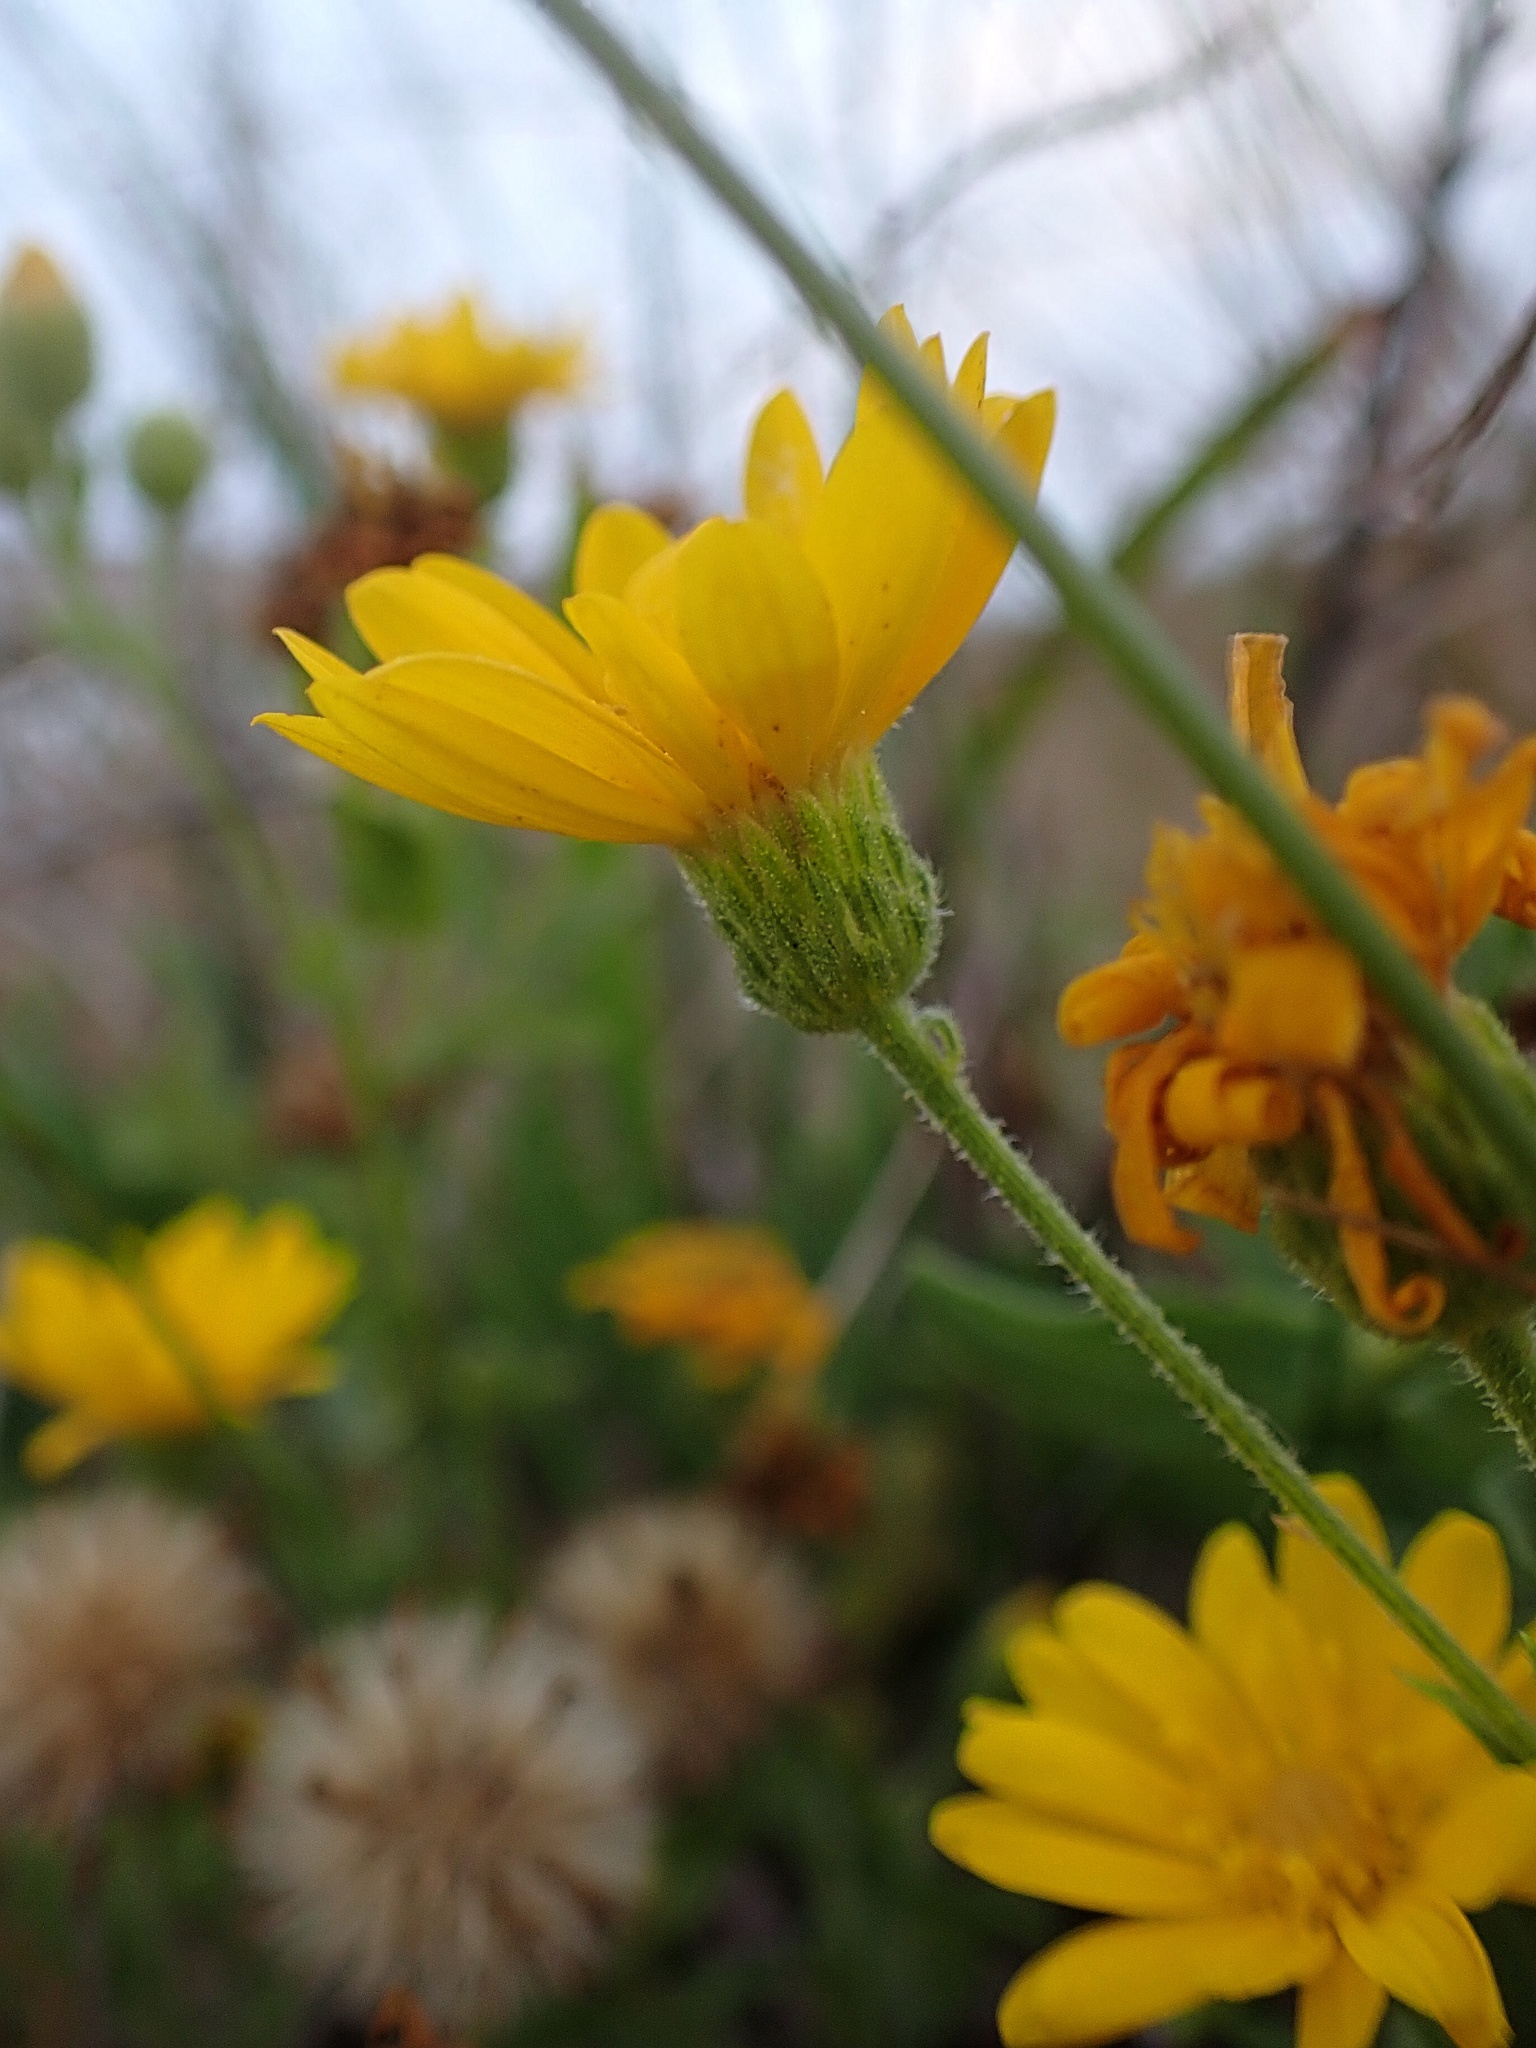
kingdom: Plantae
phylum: Tracheophyta
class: Magnoliopsida
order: Asterales
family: Asteraceae
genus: Heterotheca
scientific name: Heterotheca subaxillaris
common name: Camphorweed
